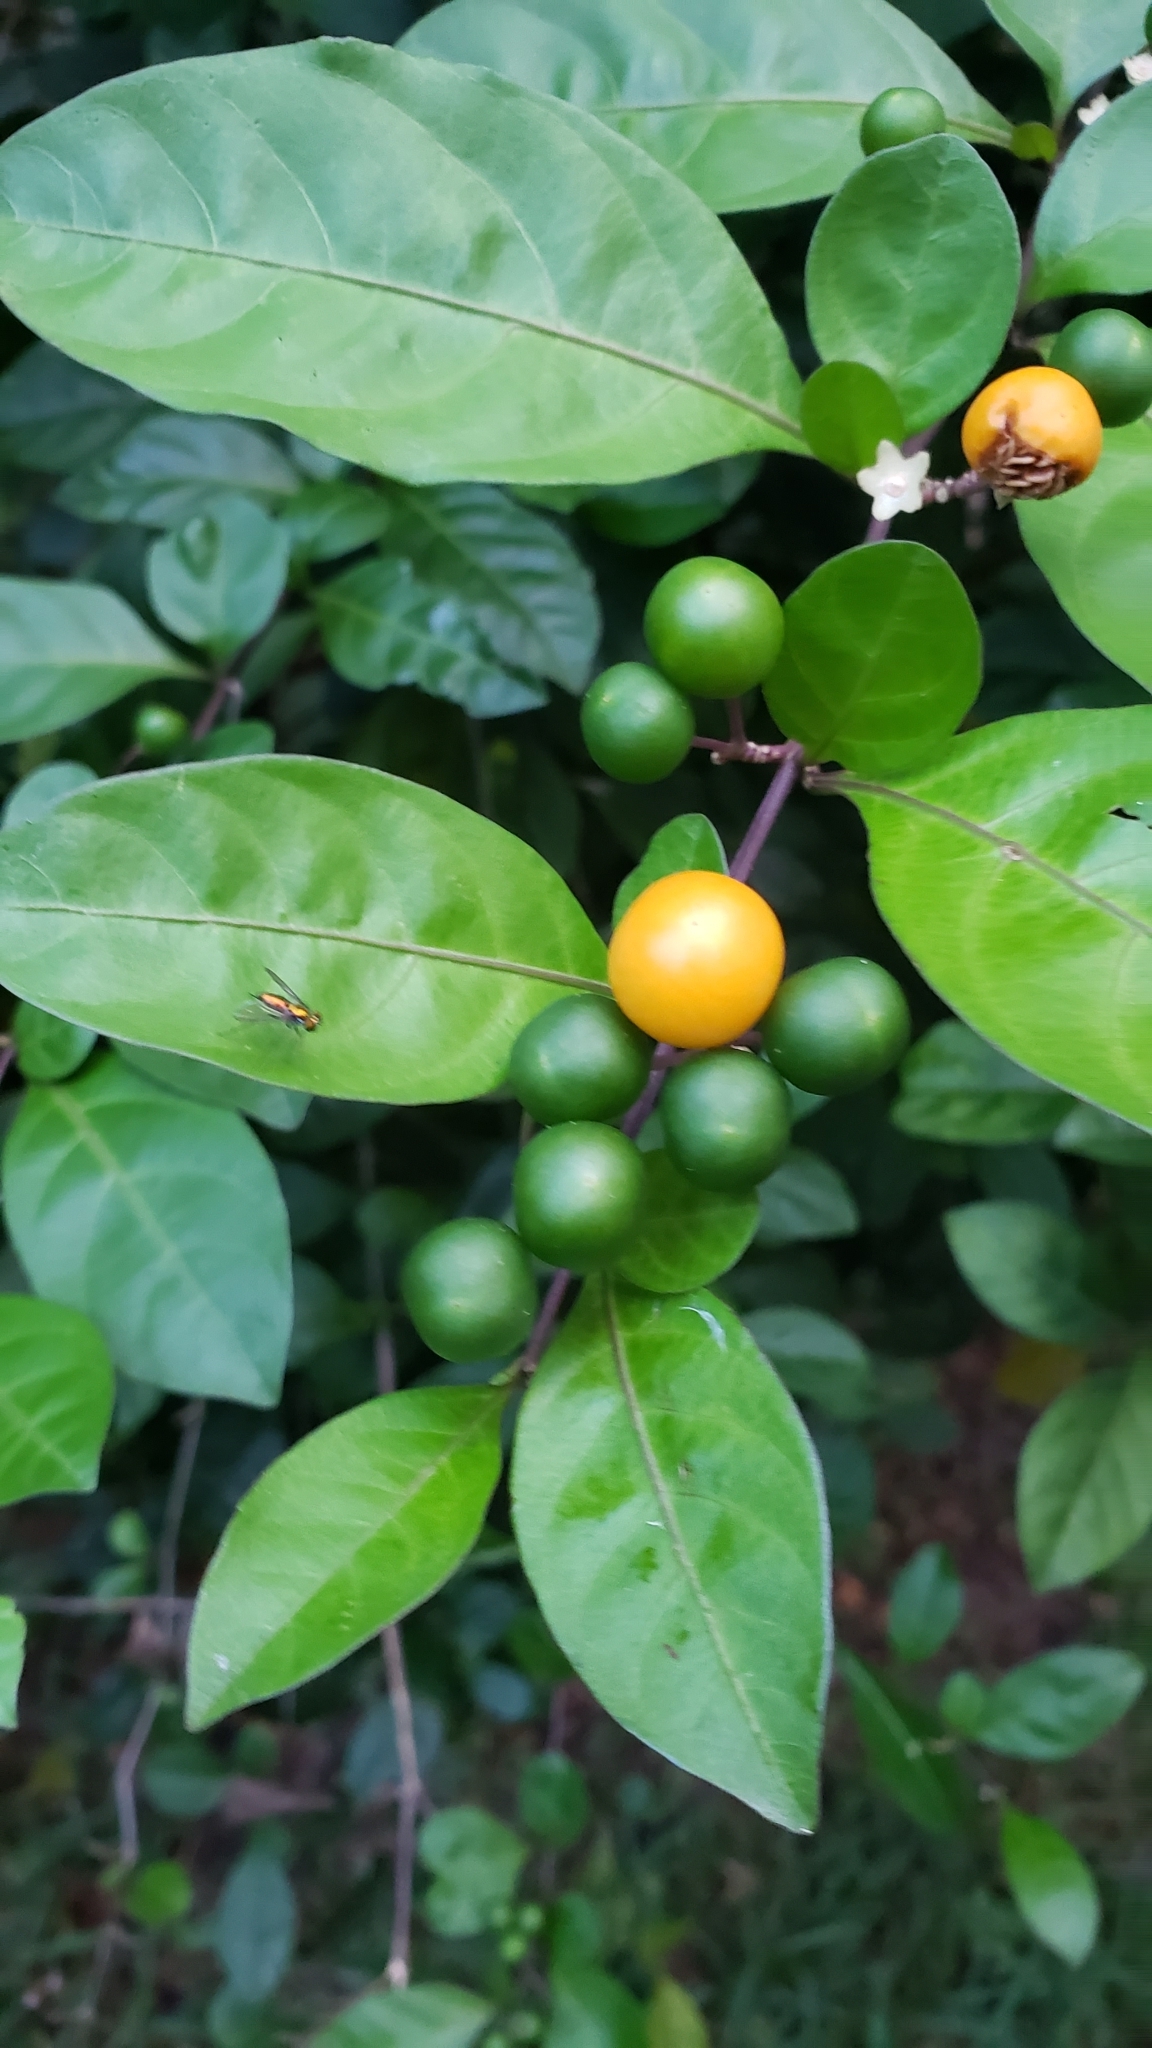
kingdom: Plantae
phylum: Tracheophyta
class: Magnoliopsida
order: Solanales
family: Solanaceae
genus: Solanum
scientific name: Solanum diphyllum
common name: Twoleaf nightshade
